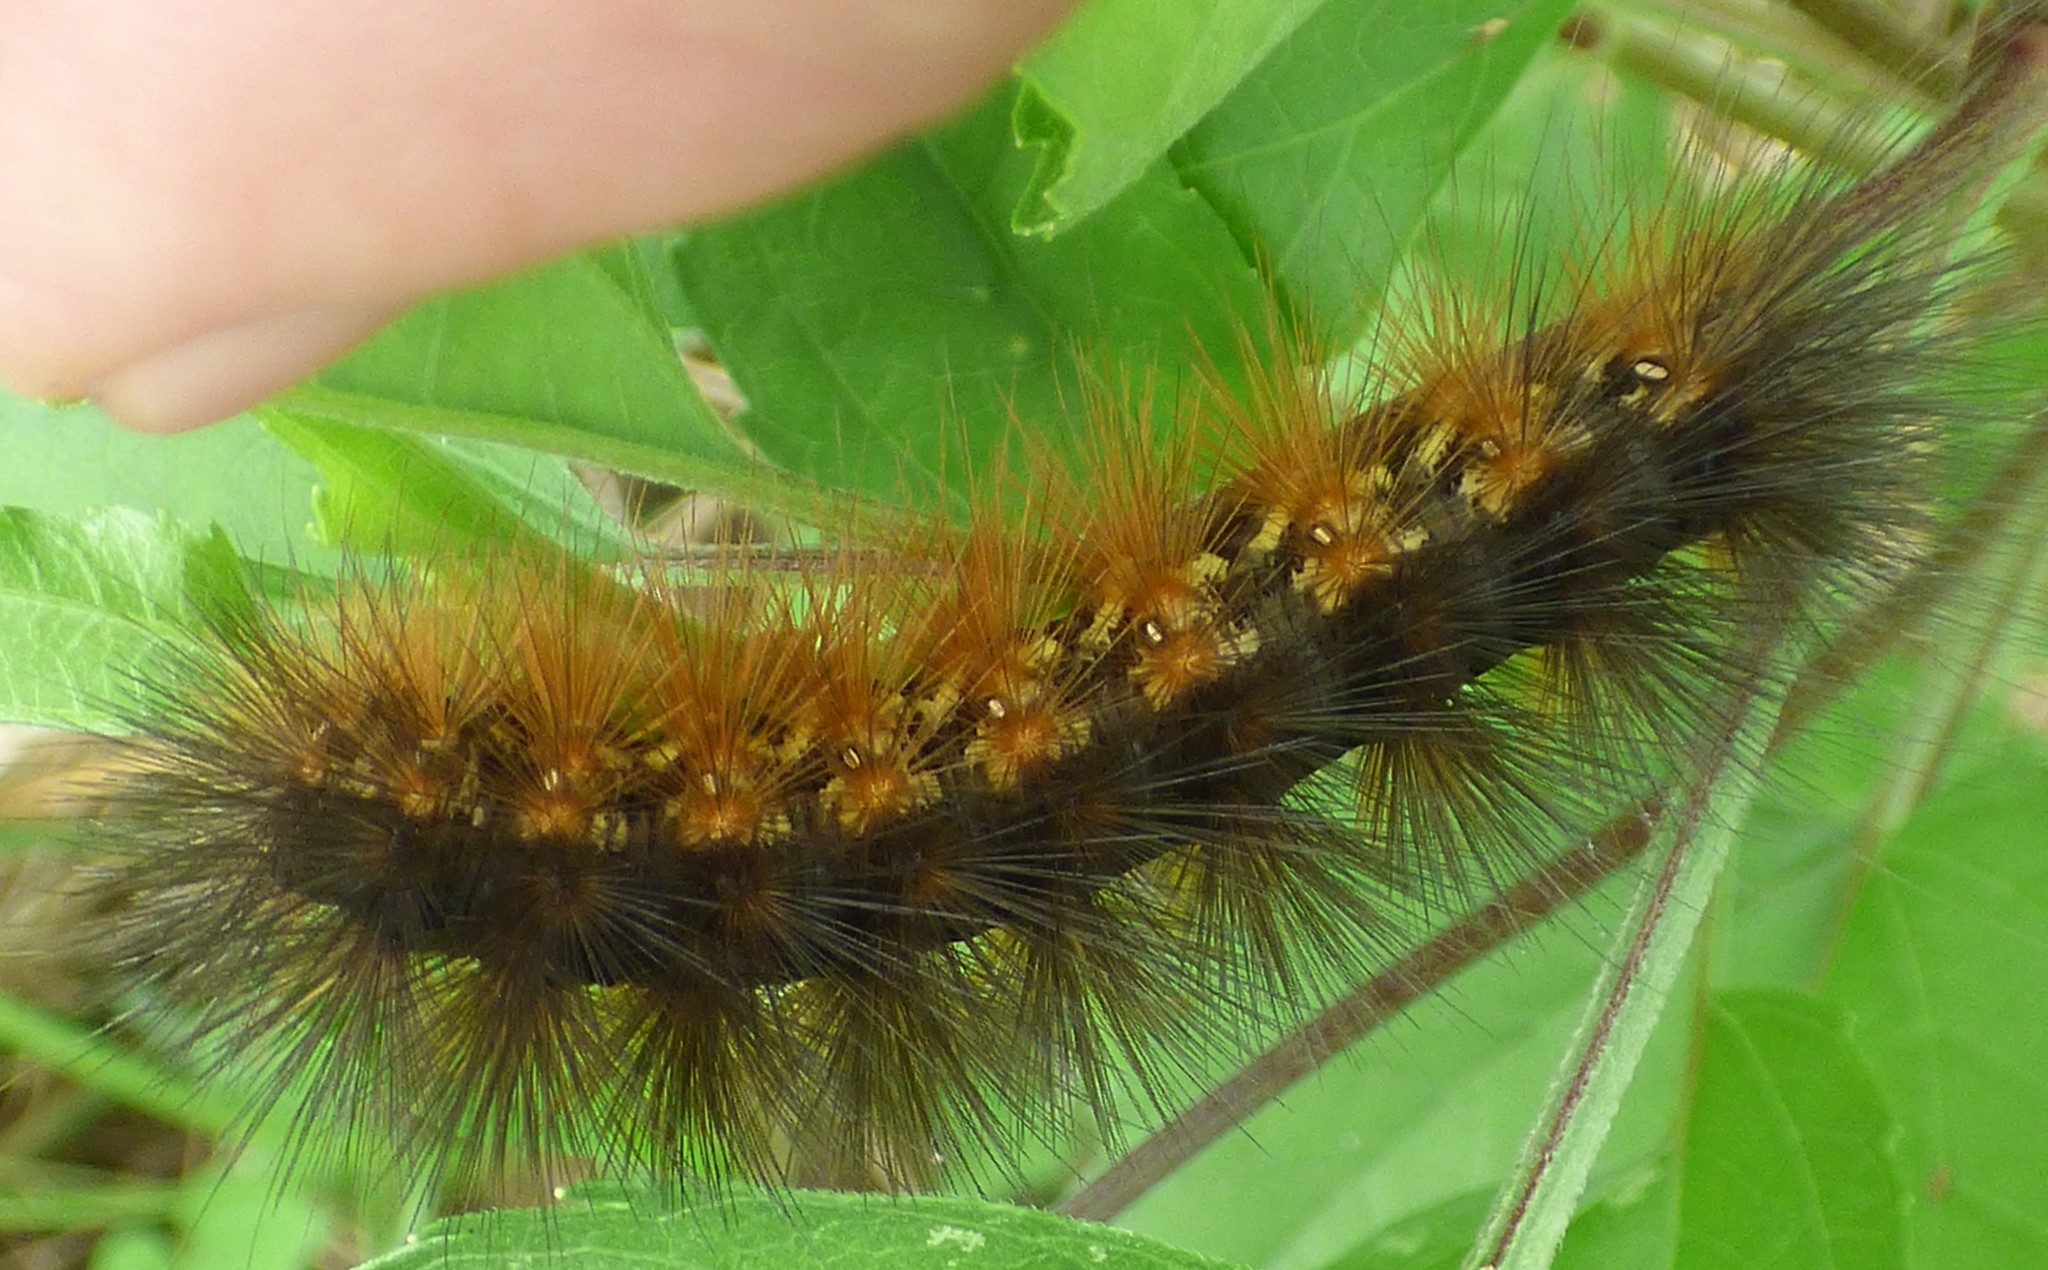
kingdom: Animalia
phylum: Arthropoda
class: Insecta
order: Lepidoptera
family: Erebidae
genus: Estigmene
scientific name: Estigmene acrea
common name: Salt marsh moth
